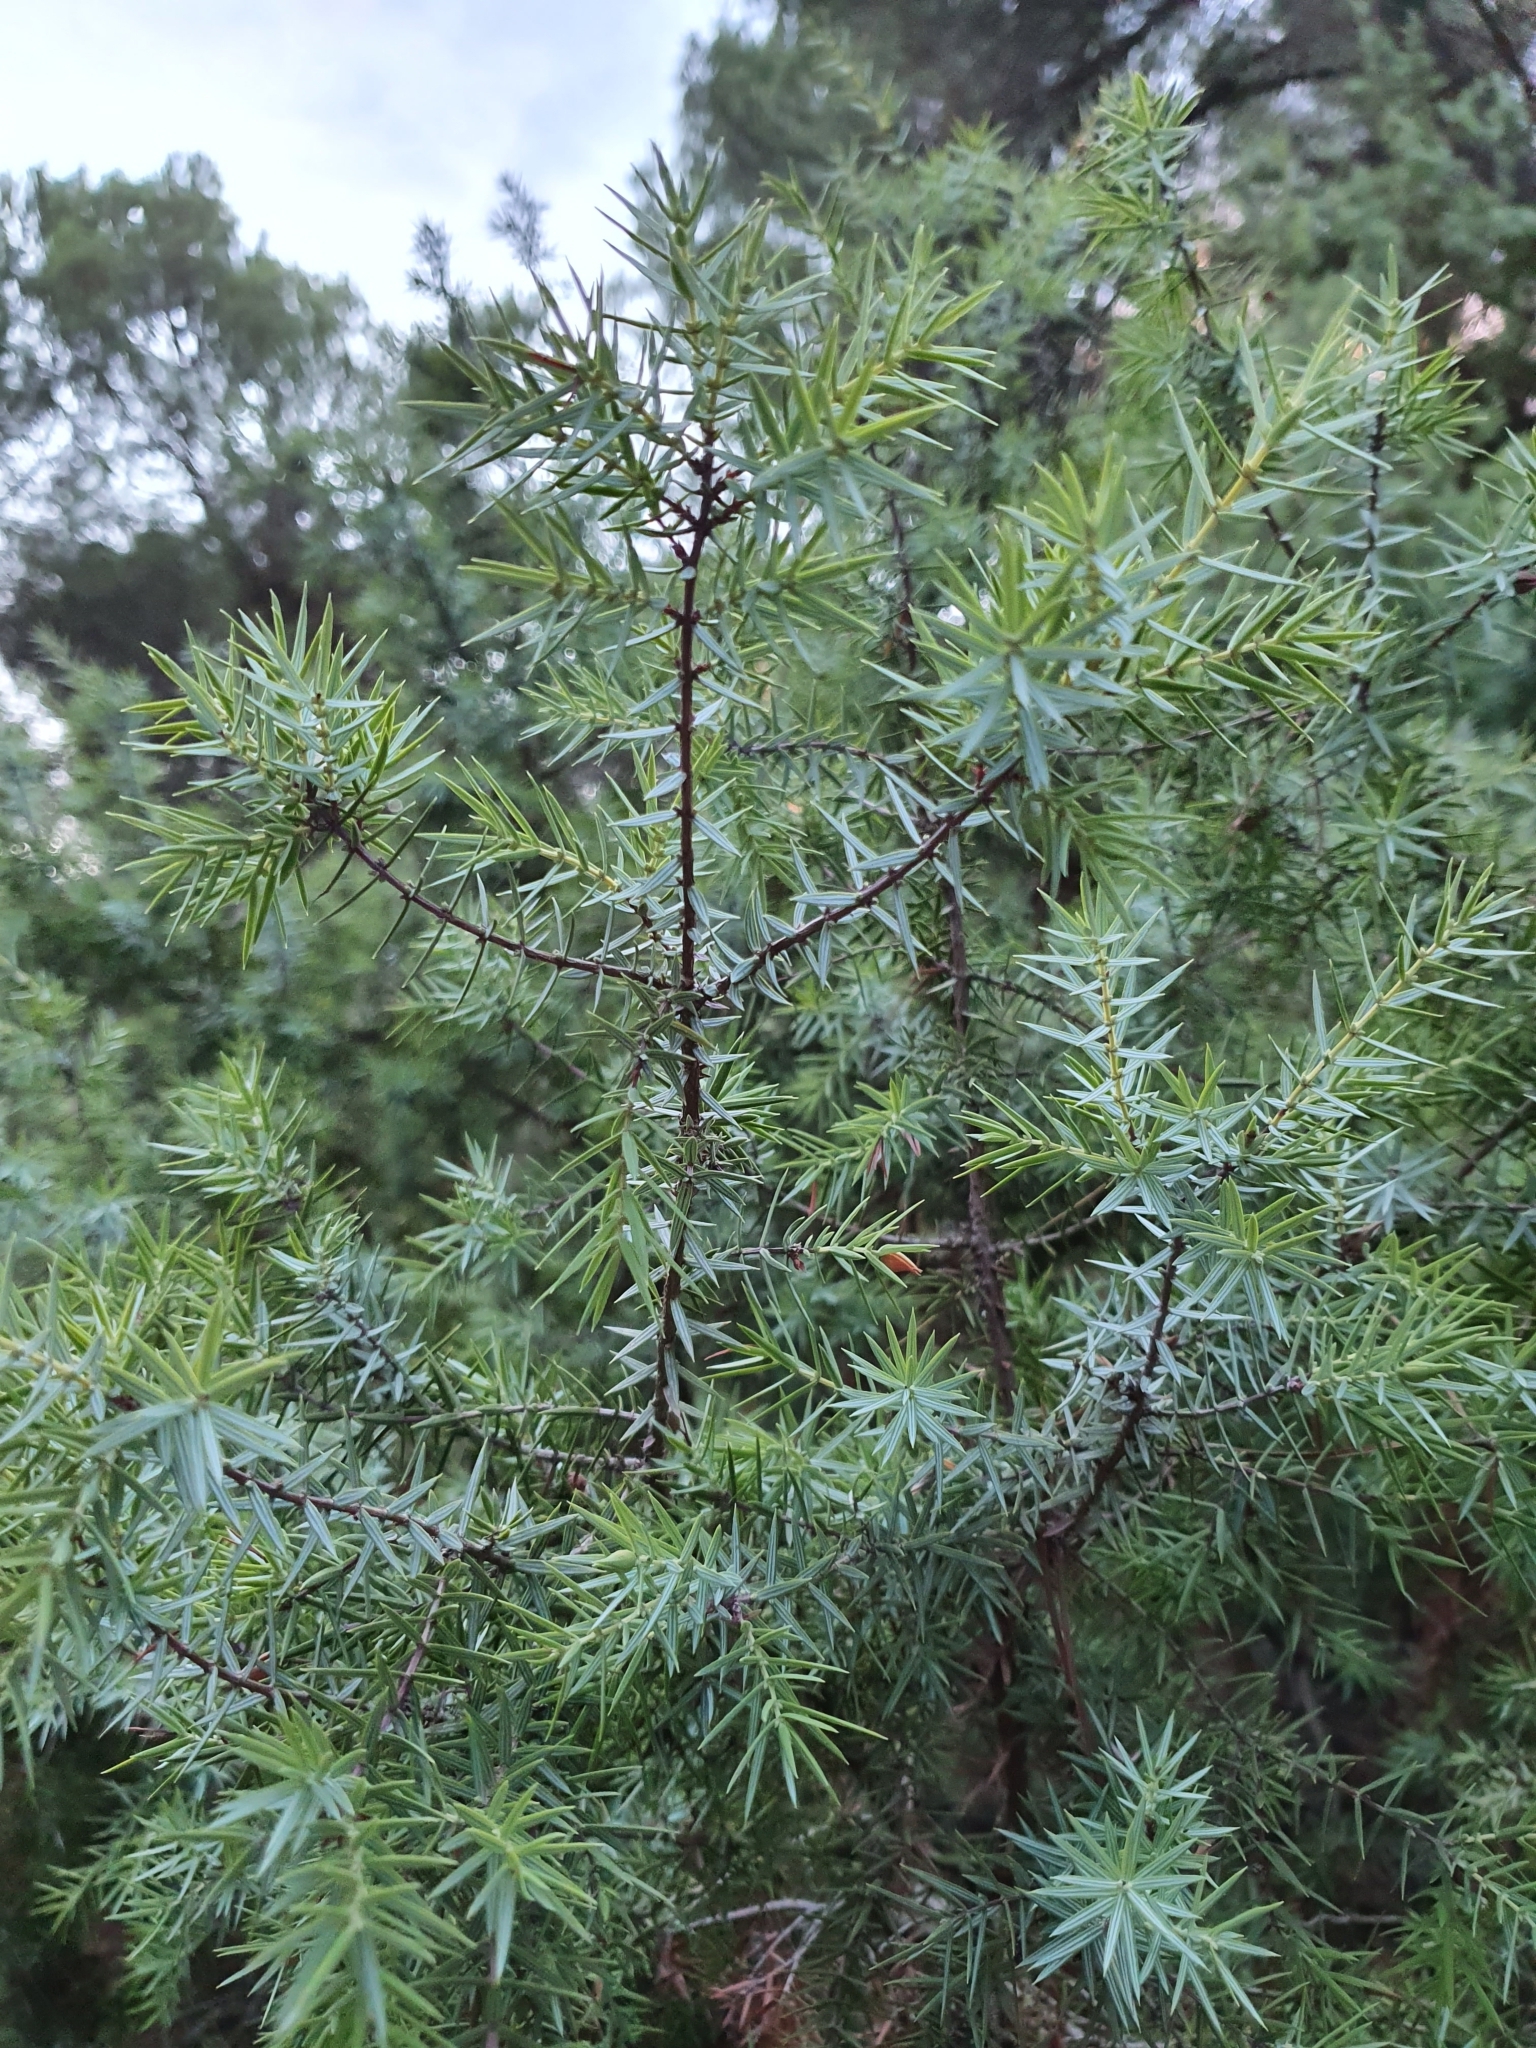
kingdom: Plantae
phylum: Tracheophyta
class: Pinopsida
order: Pinales
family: Cupressaceae
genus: Juniperus
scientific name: Juniperus oxycedrus
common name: Prickly juniper
